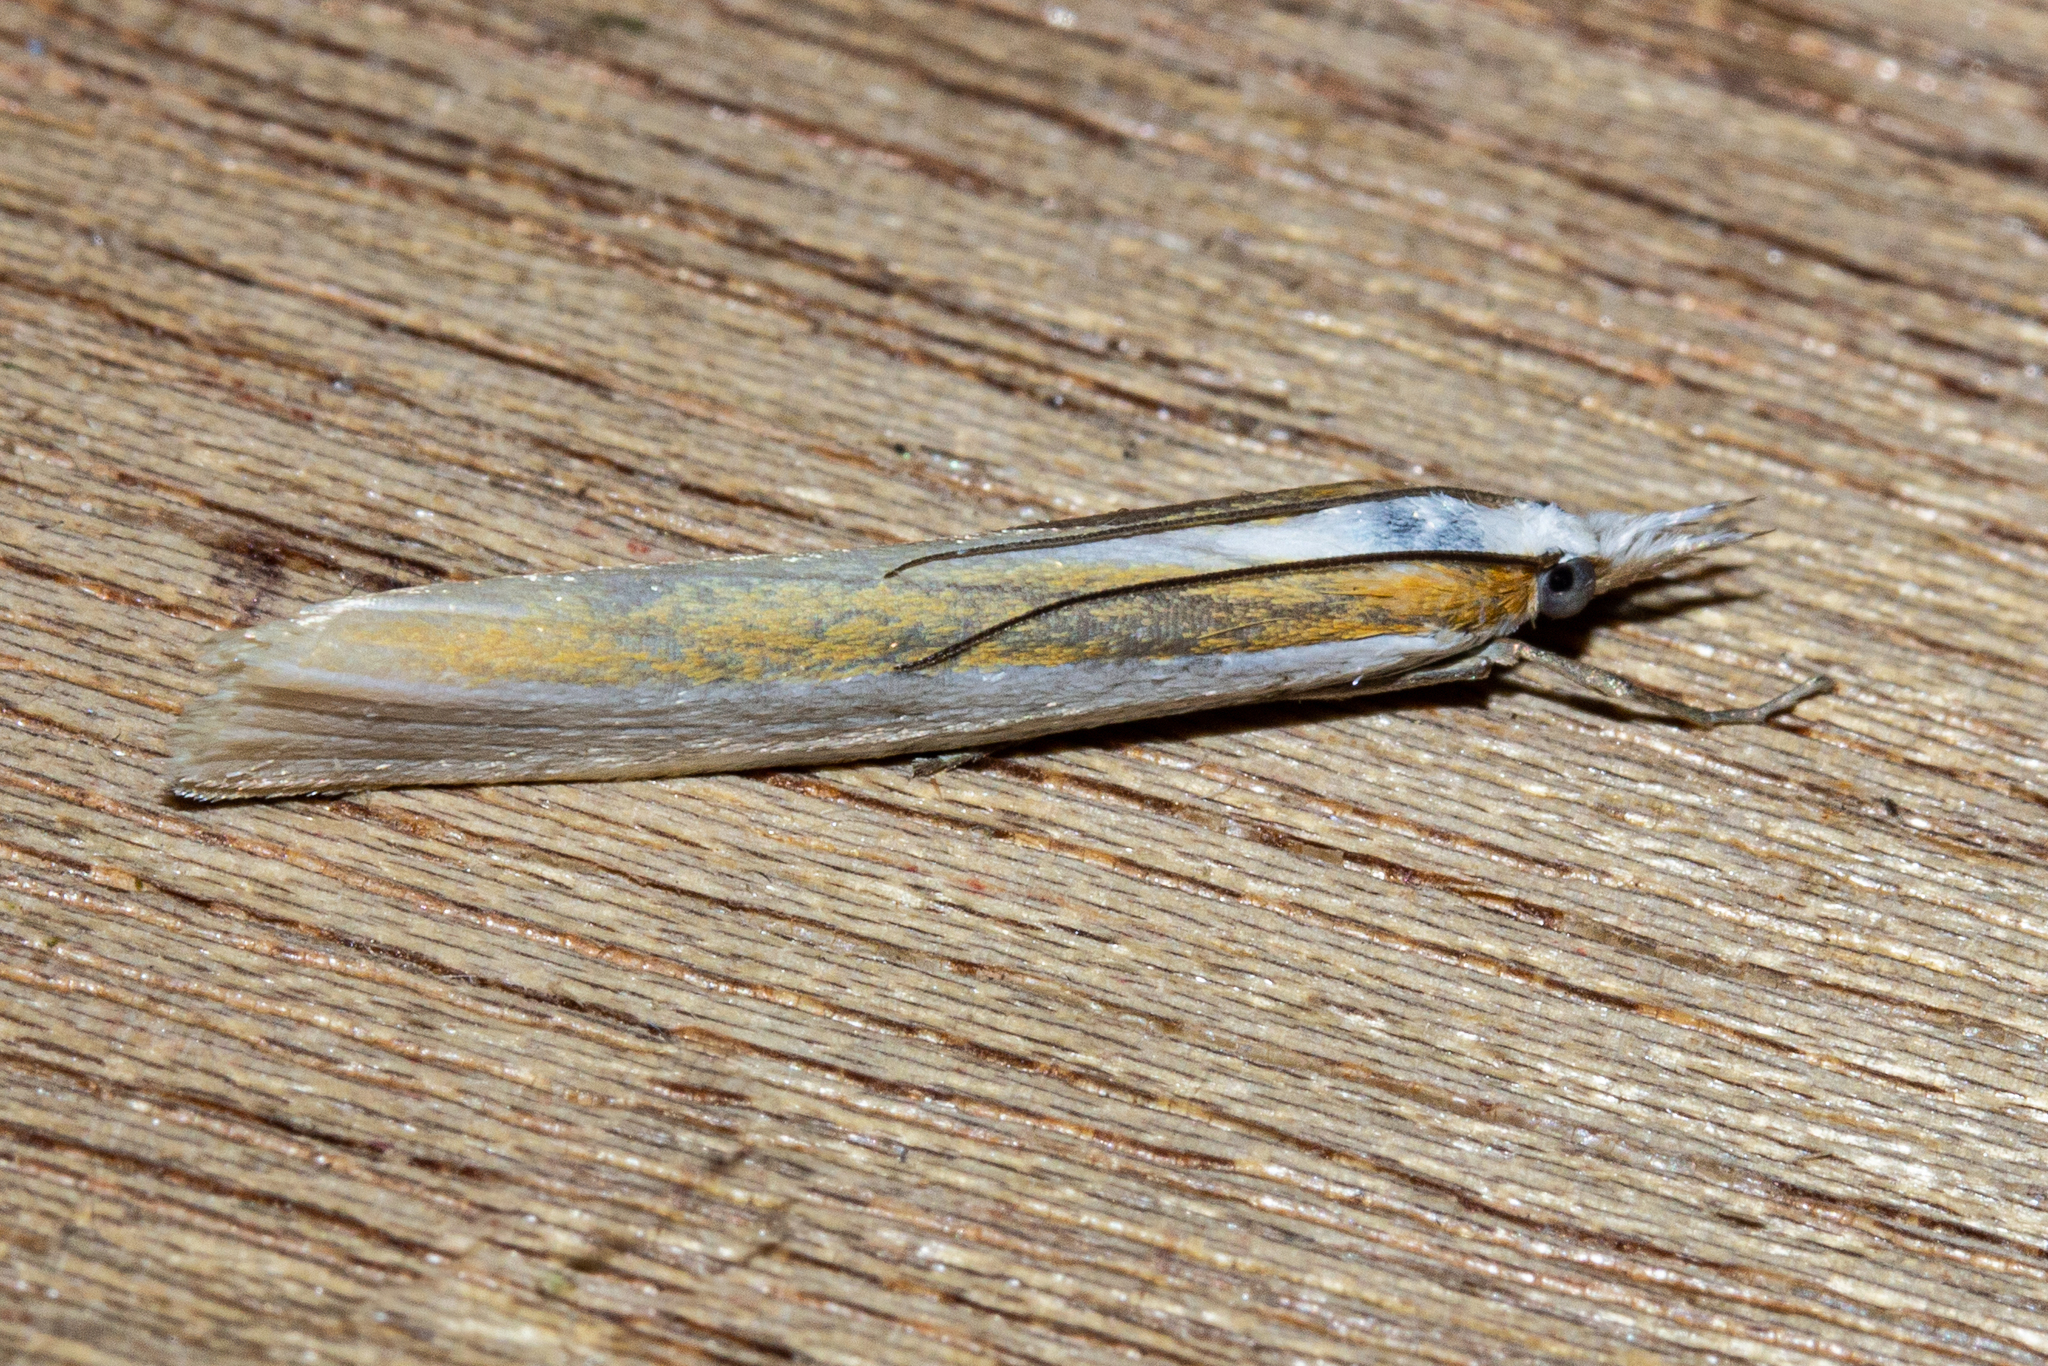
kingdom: Animalia
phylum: Arthropoda
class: Insecta
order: Lepidoptera
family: Crambidae
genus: Orocrambus
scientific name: Orocrambus ephorus
